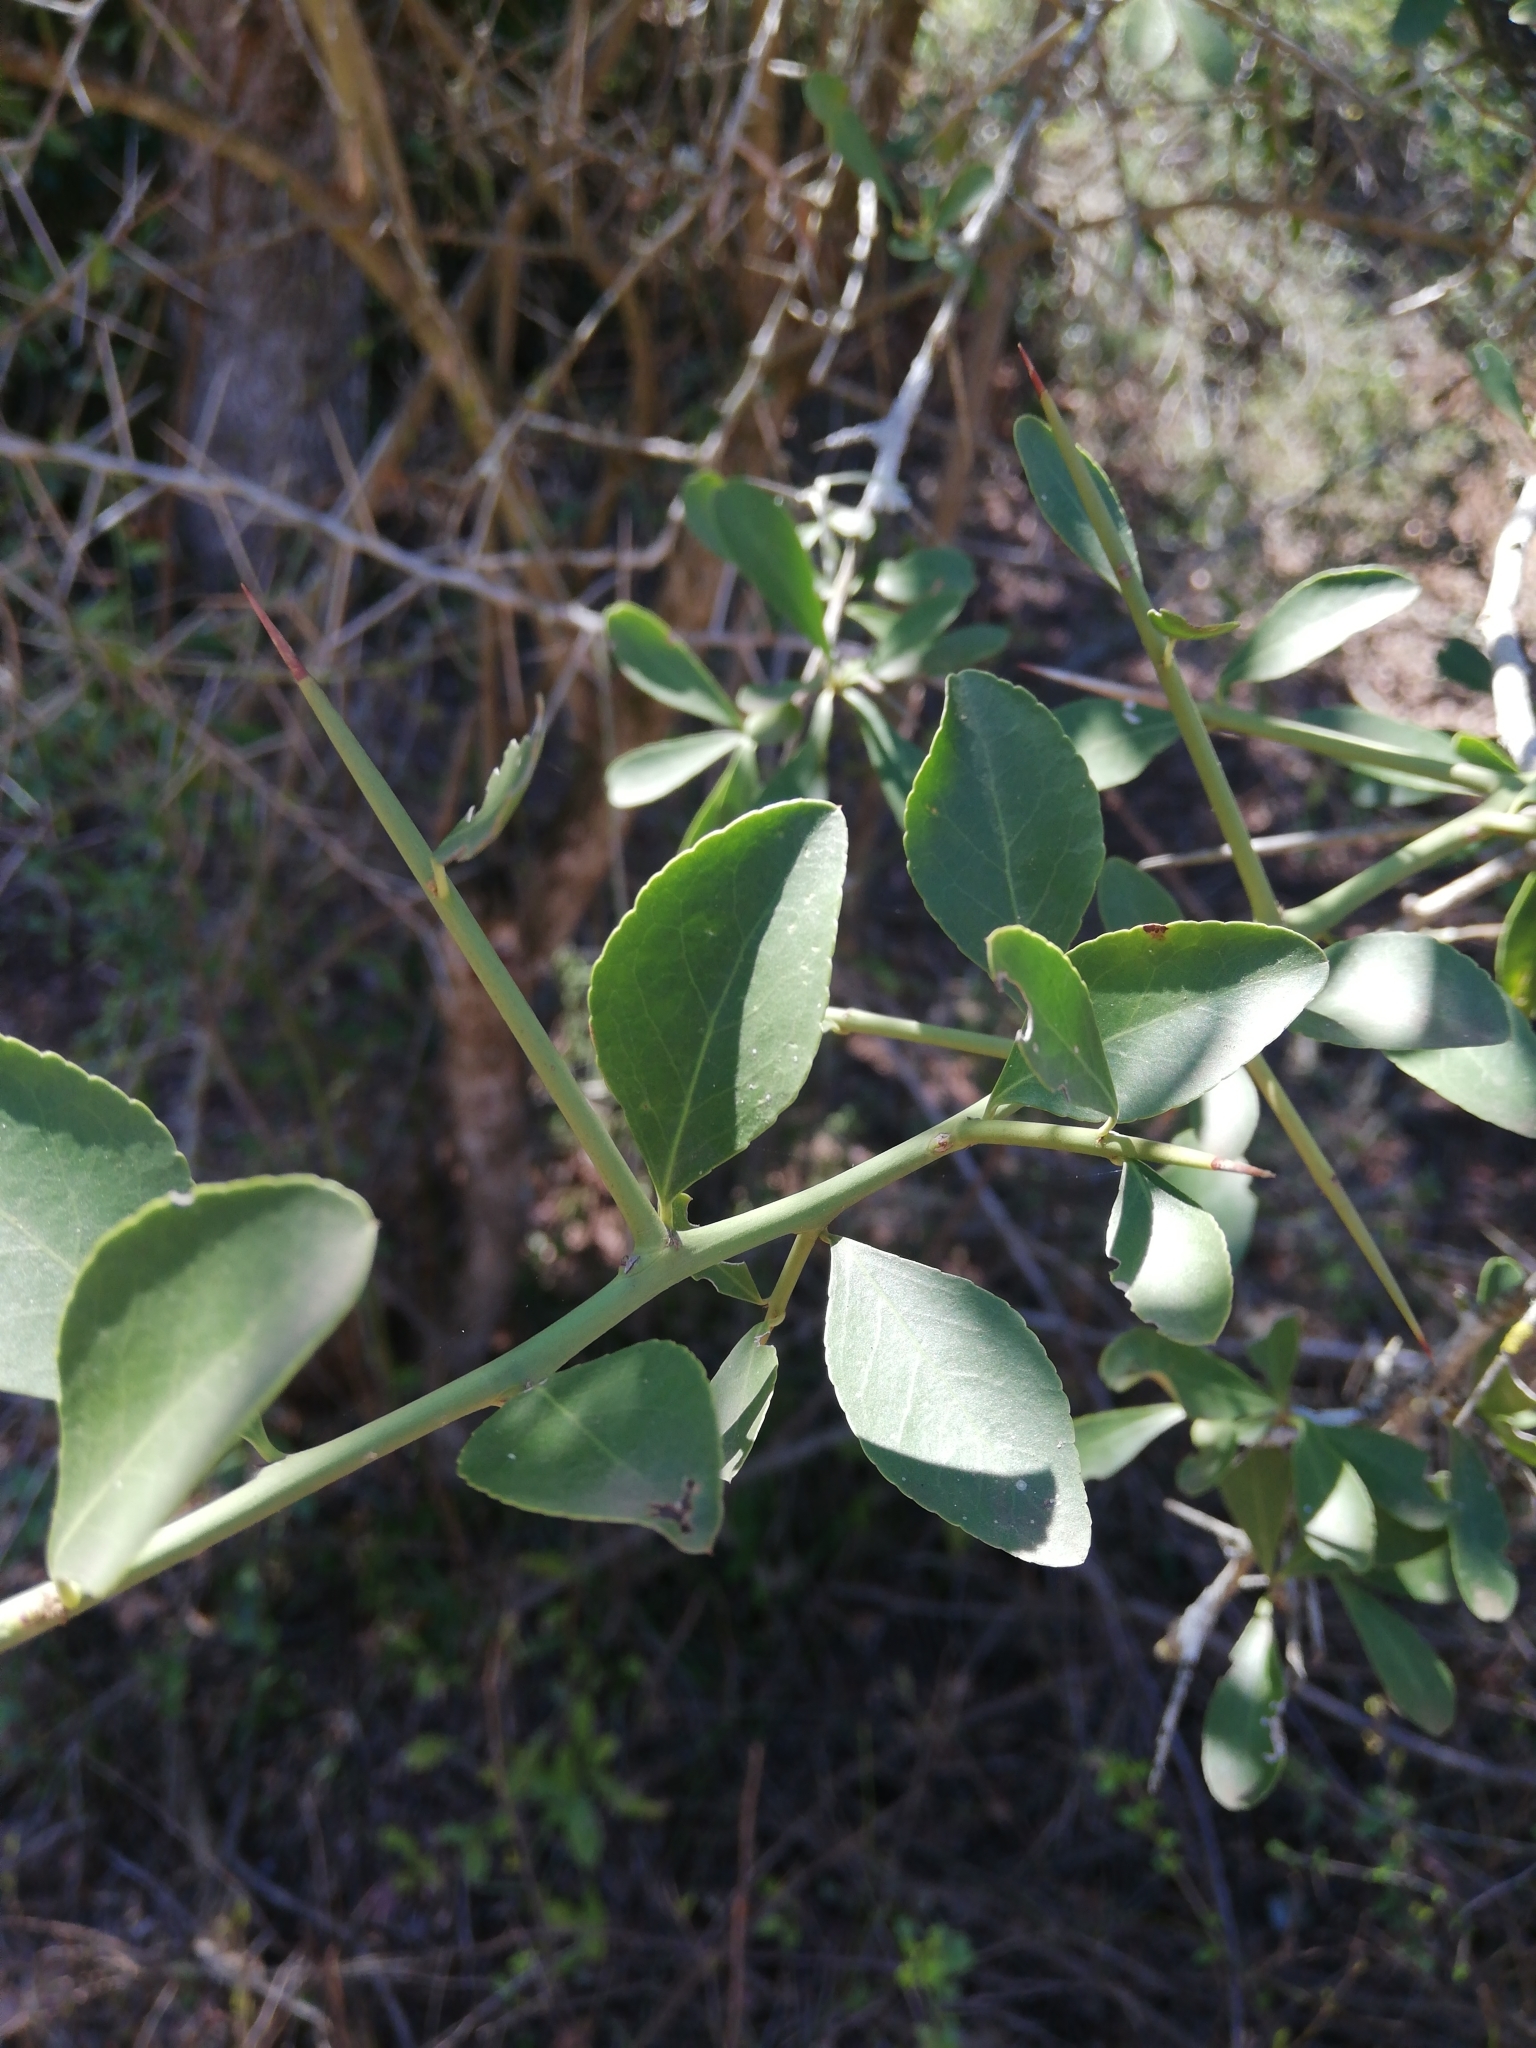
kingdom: Plantae
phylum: Tracheophyta
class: Magnoliopsida
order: Celastrales
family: Celastraceae
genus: Gymnosporia
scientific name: Gymnosporia nemorosa
